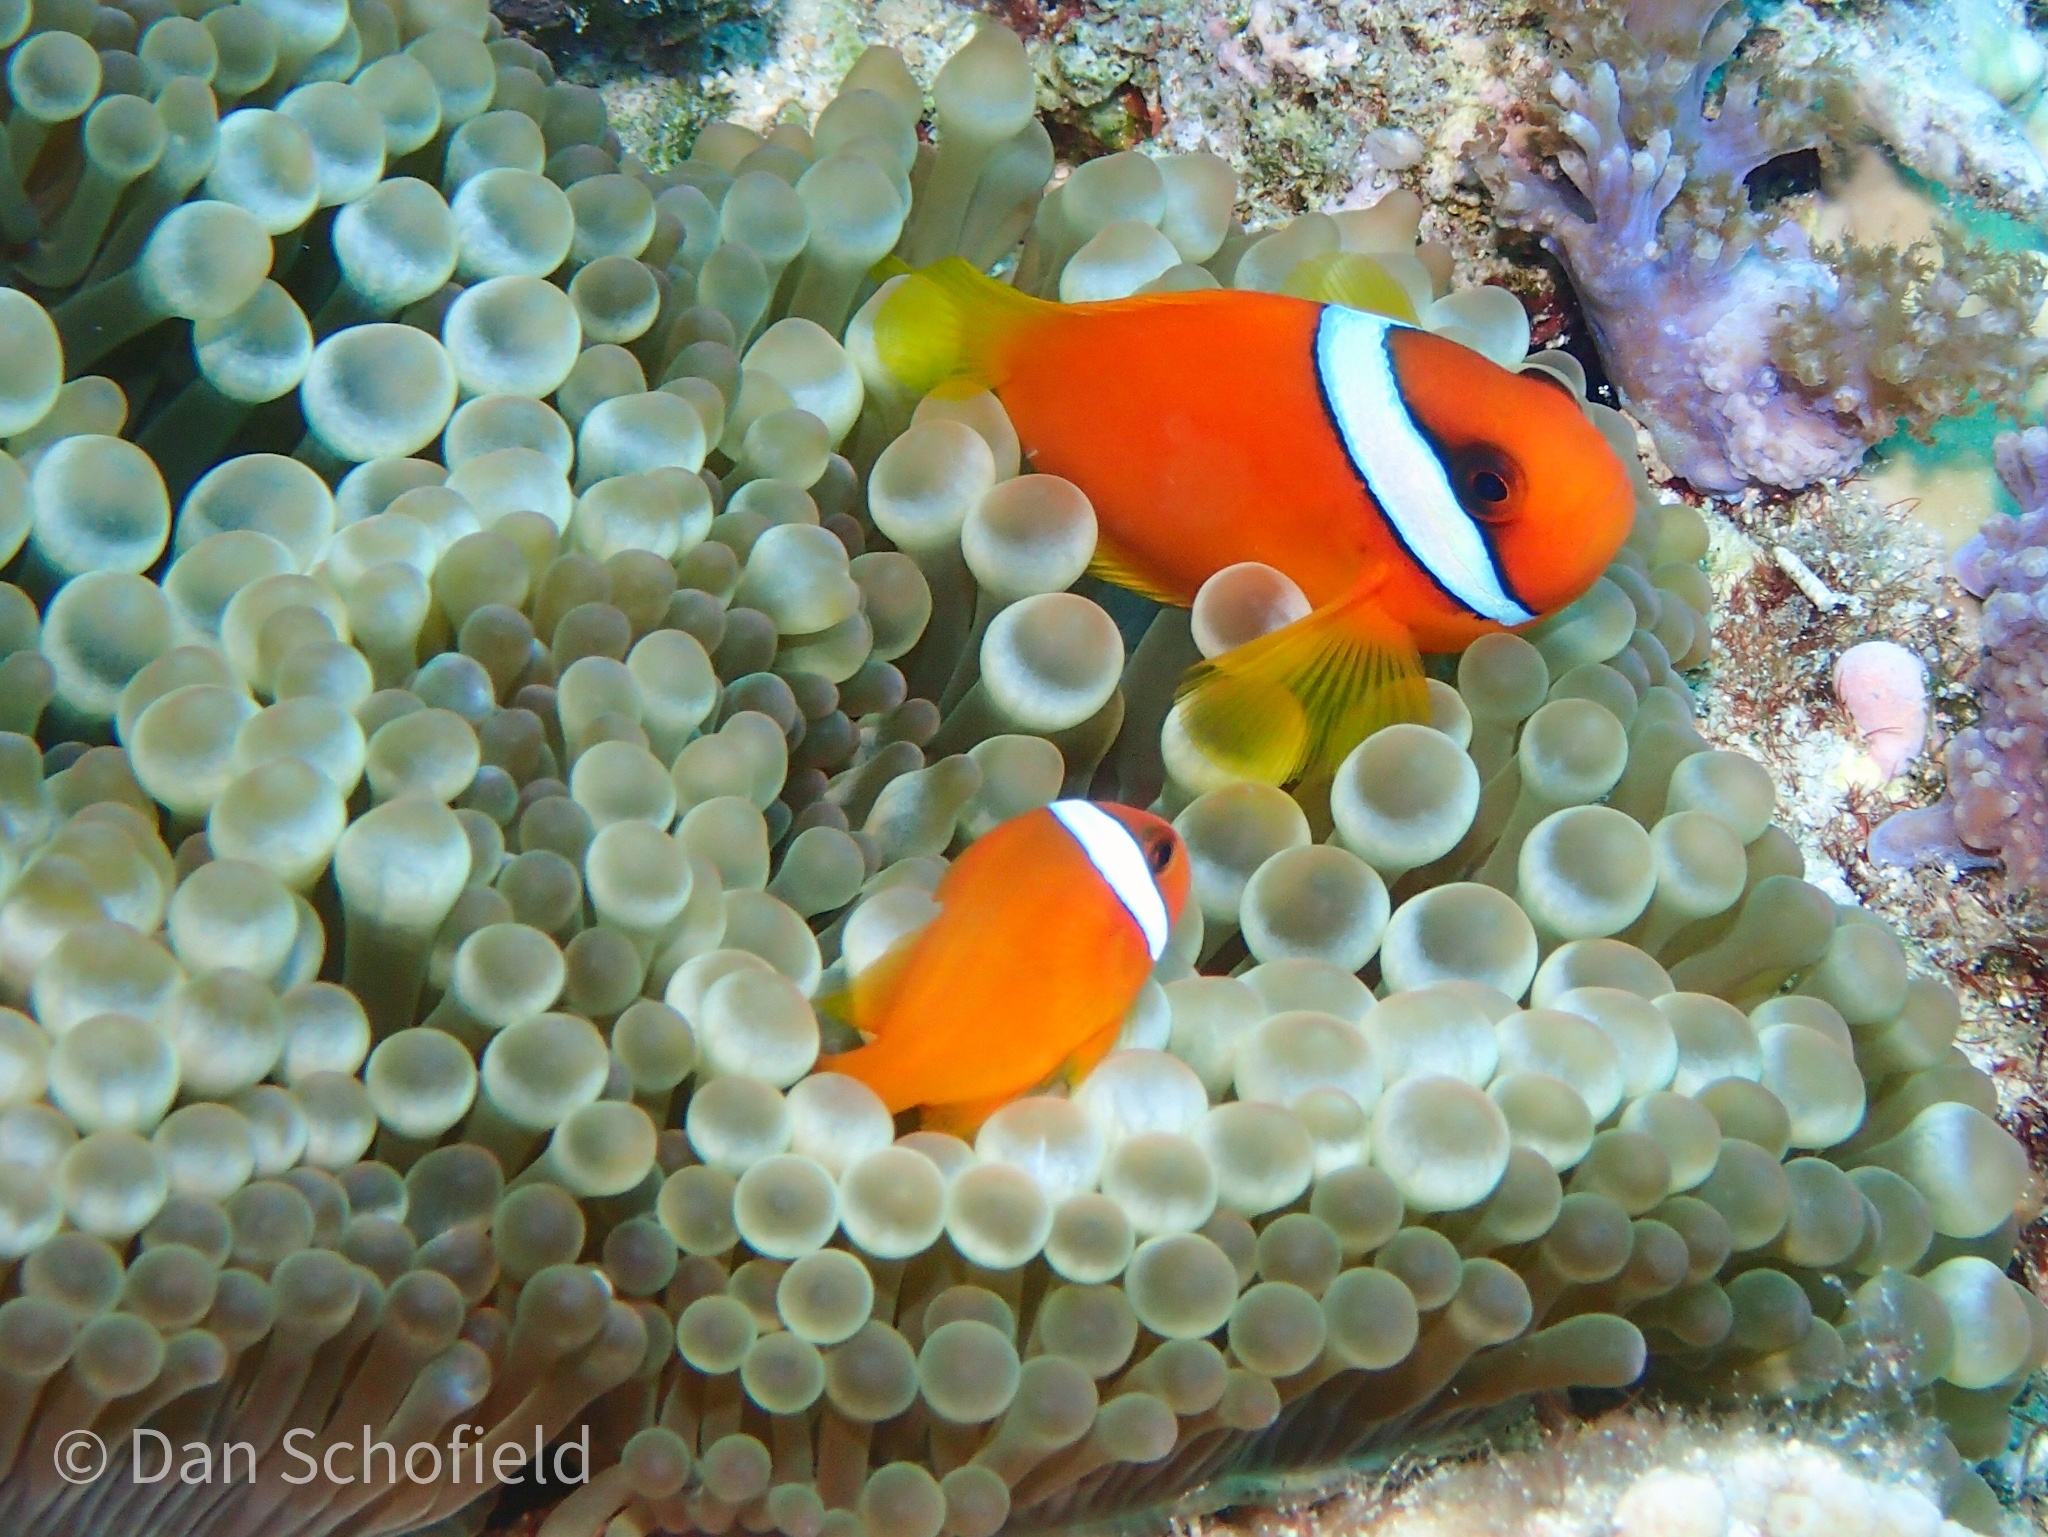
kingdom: Animalia
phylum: Chordata
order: Perciformes
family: Pomacentridae
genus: Amphiprion
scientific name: Amphiprion frenatus
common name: Tomato anemonefish
